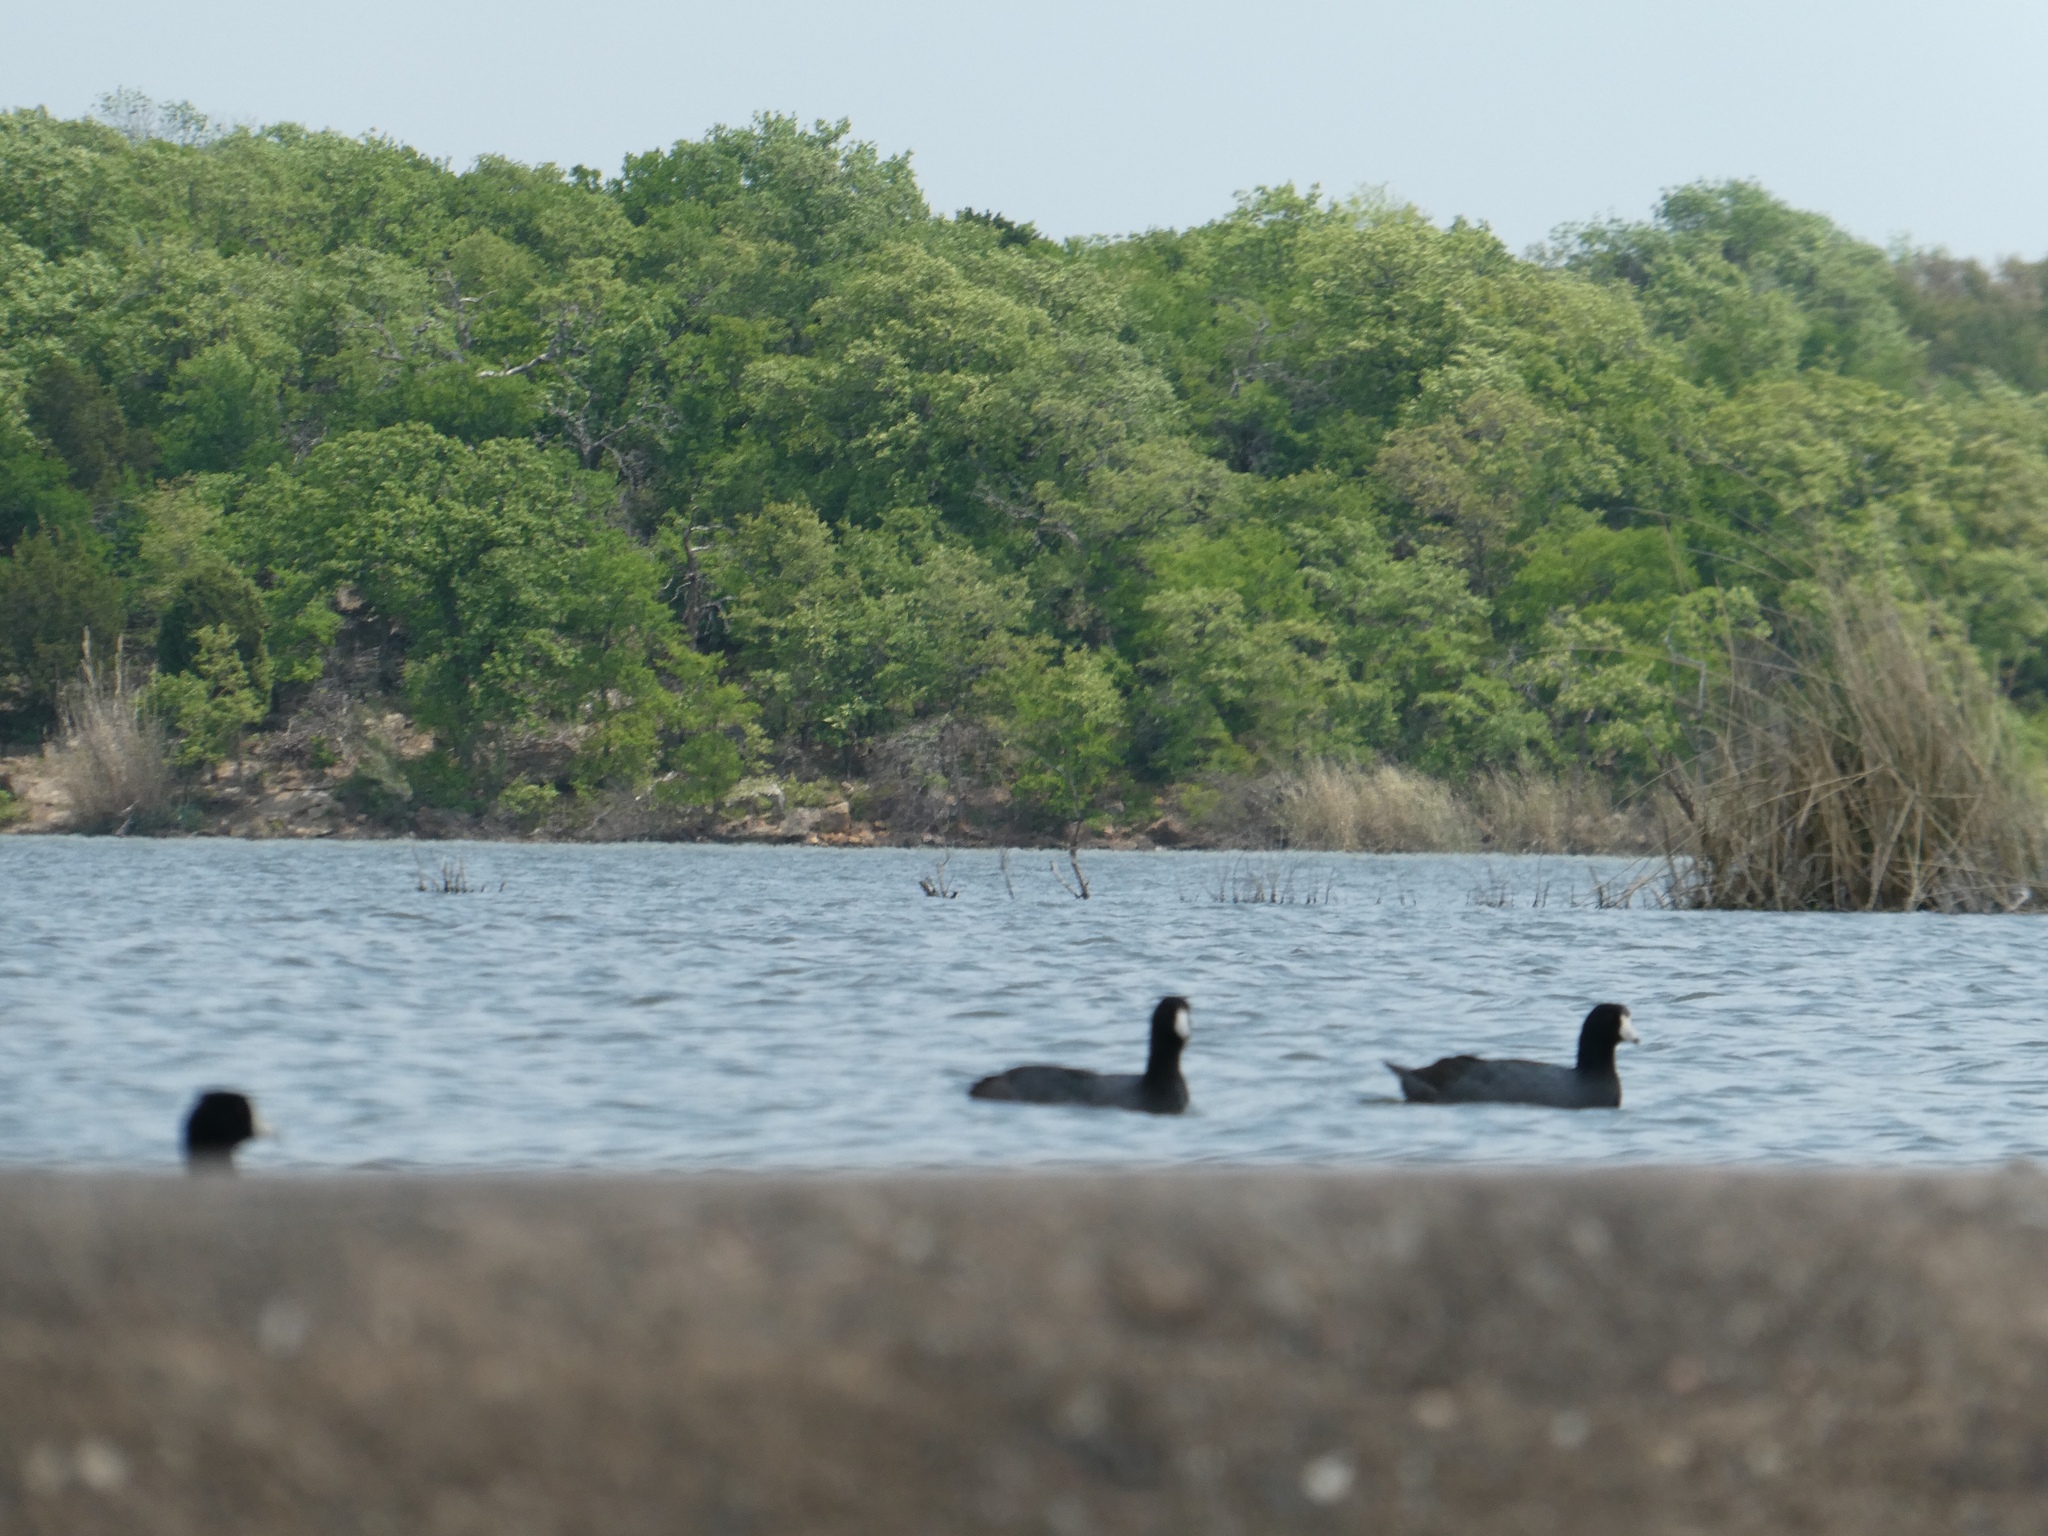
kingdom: Animalia
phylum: Chordata
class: Aves
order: Gruiformes
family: Rallidae
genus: Fulica
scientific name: Fulica americana
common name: American coot
